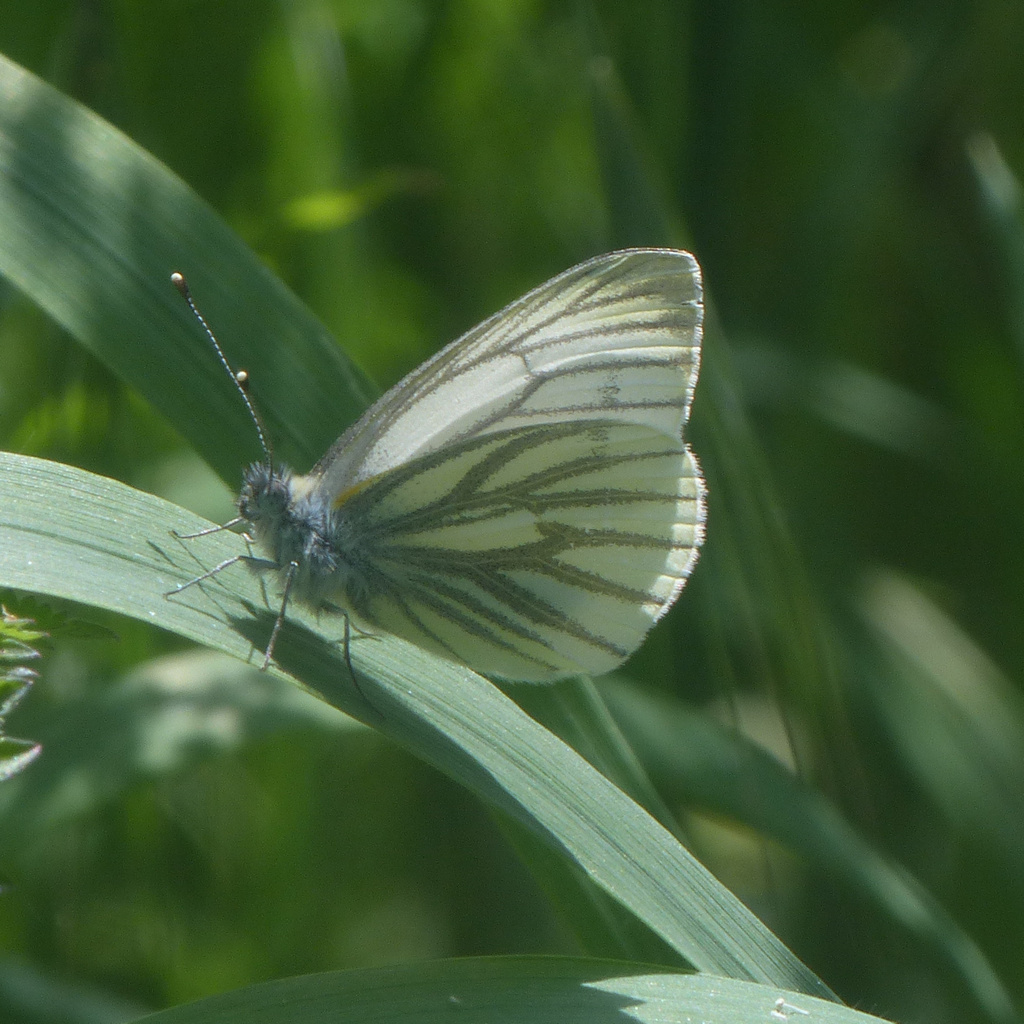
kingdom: Animalia
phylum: Arthropoda
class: Insecta
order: Lepidoptera
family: Pieridae
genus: Pieris
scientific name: Pieris napi
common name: Green-veined white
